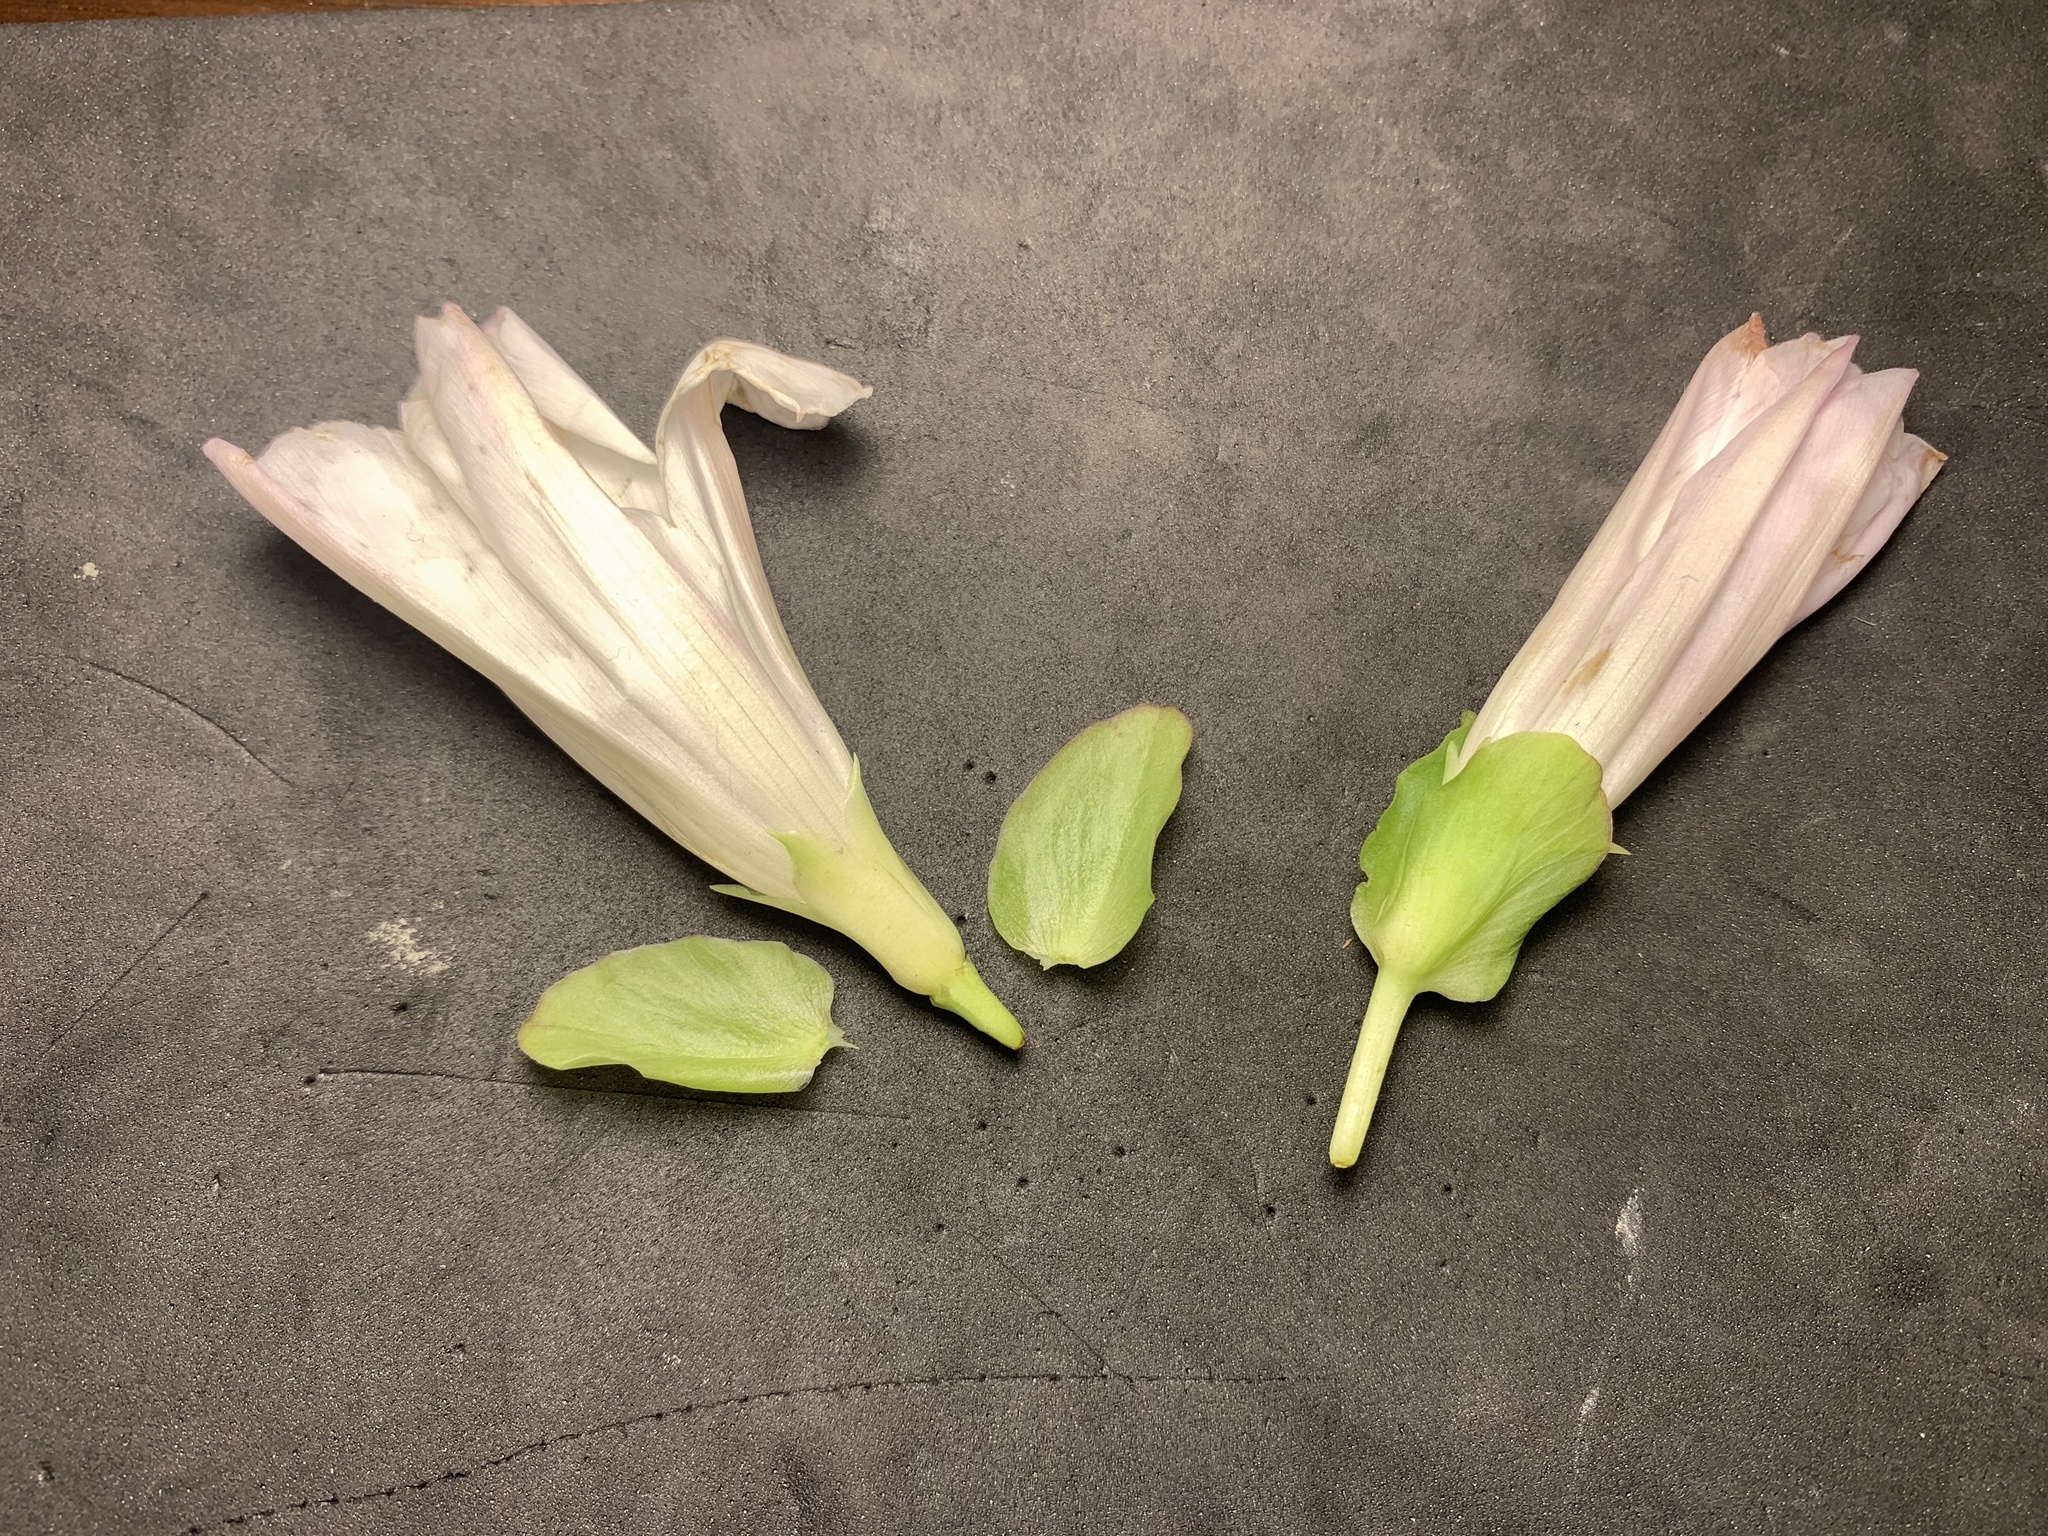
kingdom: Plantae
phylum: Tracheophyta
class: Magnoliopsida
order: Solanales
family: Convolvulaceae
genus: Calystegia
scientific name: Calystegia atriplicifolia
